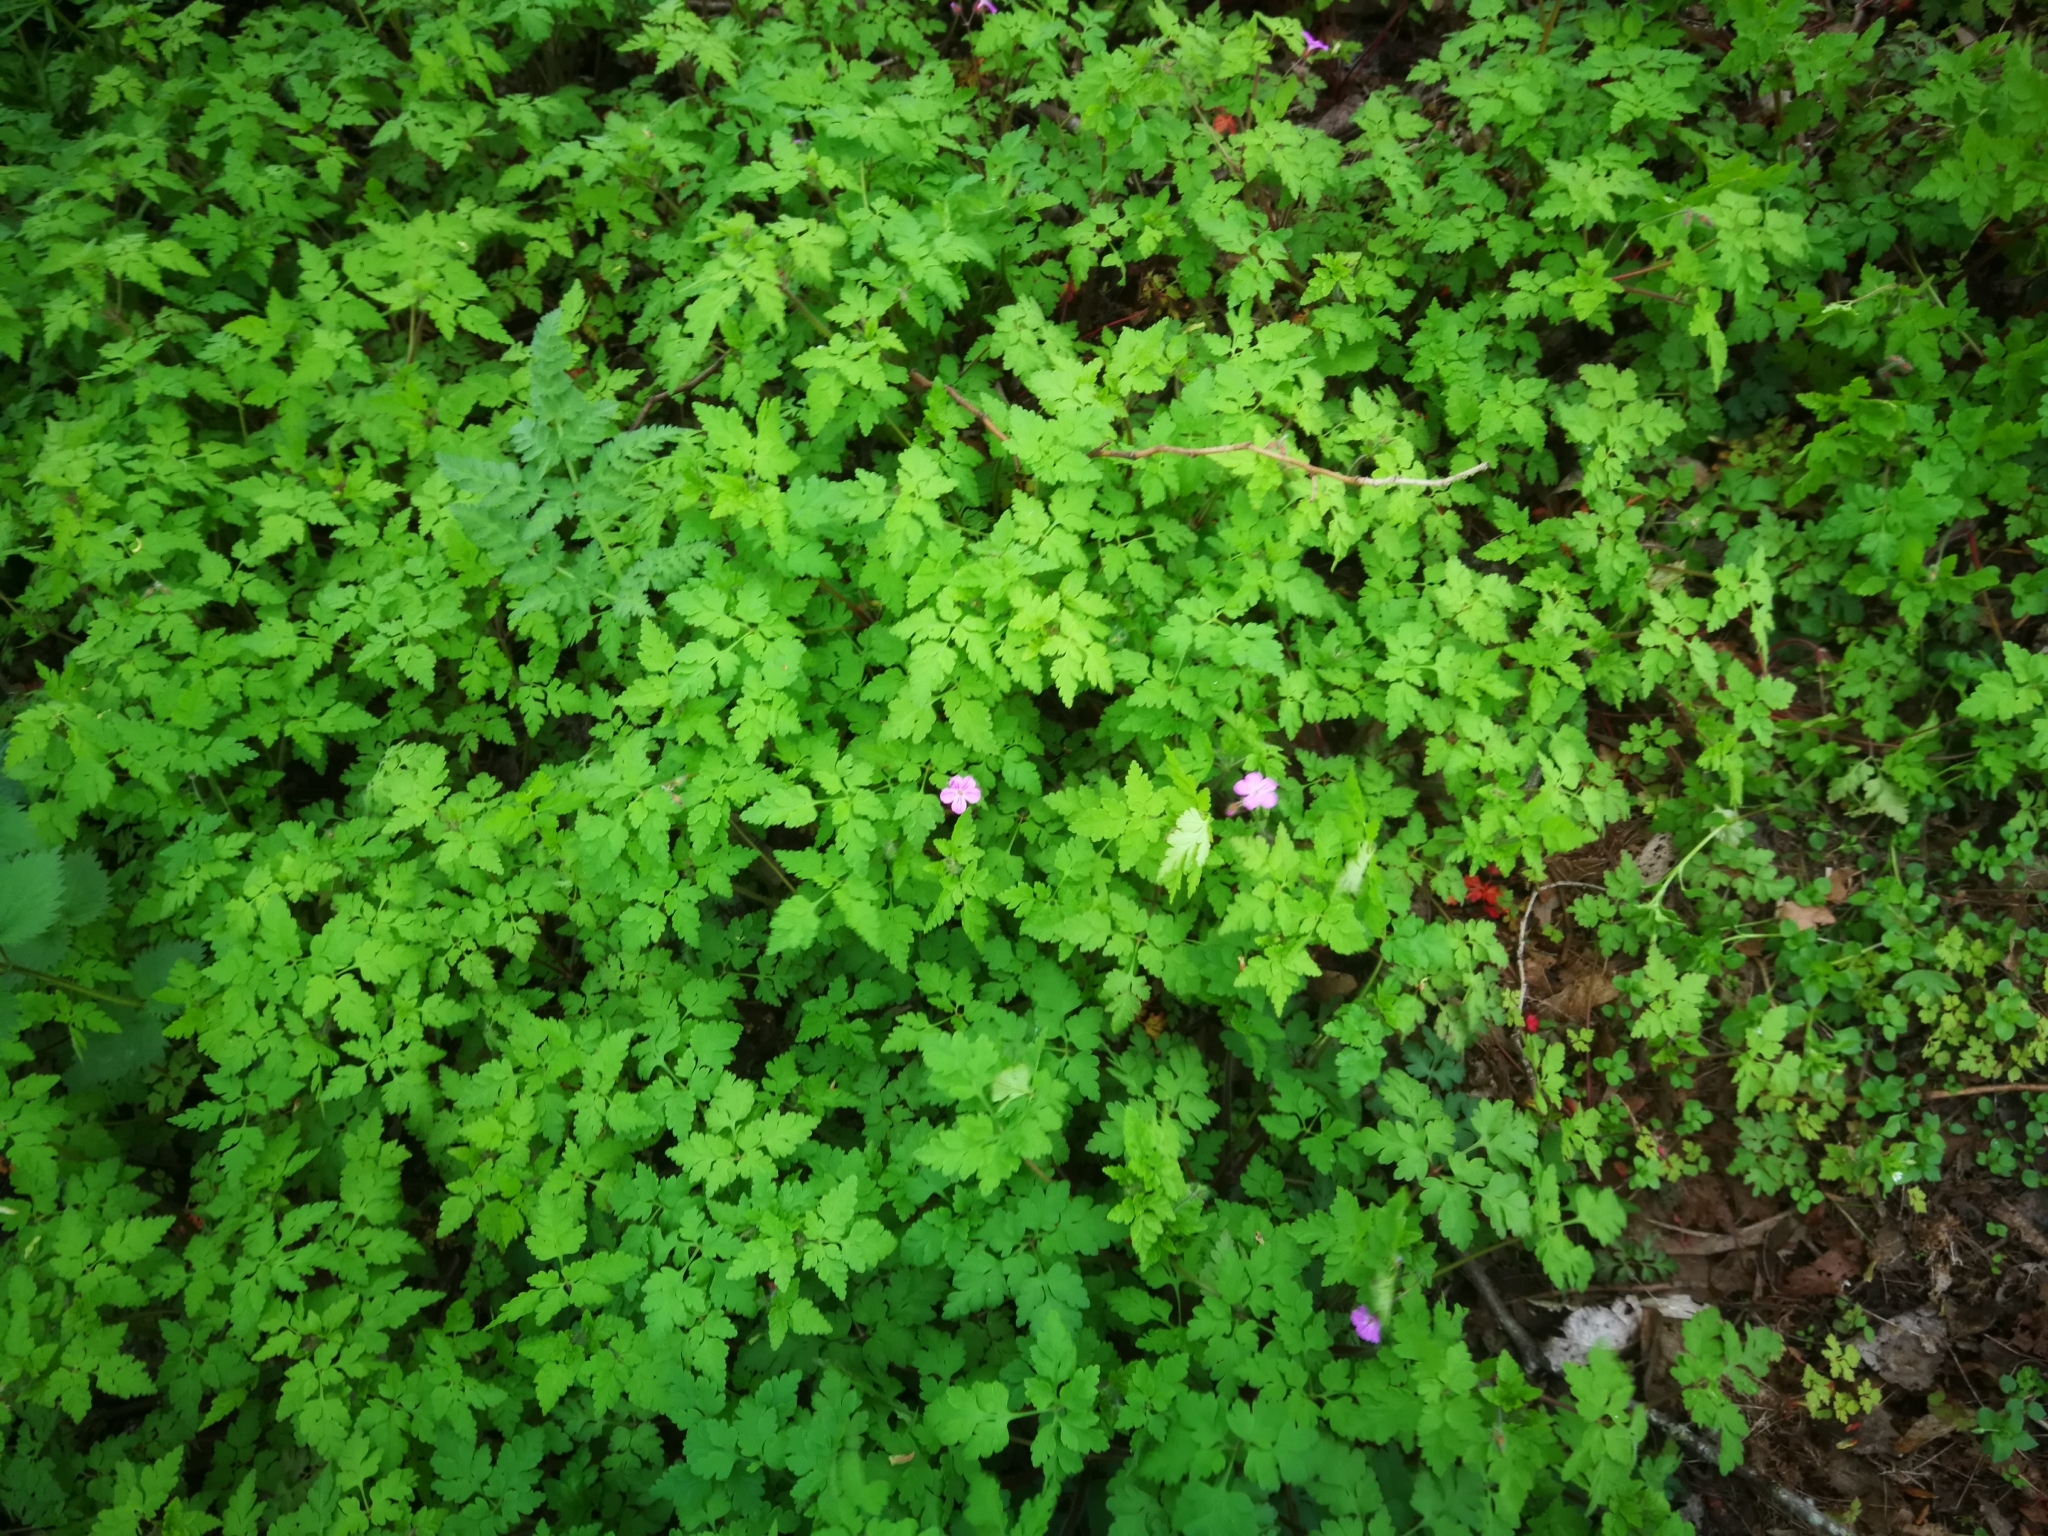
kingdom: Plantae
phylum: Tracheophyta
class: Magnoliopsida
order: Geraniales
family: Geraniaceae
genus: Geranium
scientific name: Geranium robertianum
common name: Herb-robert
